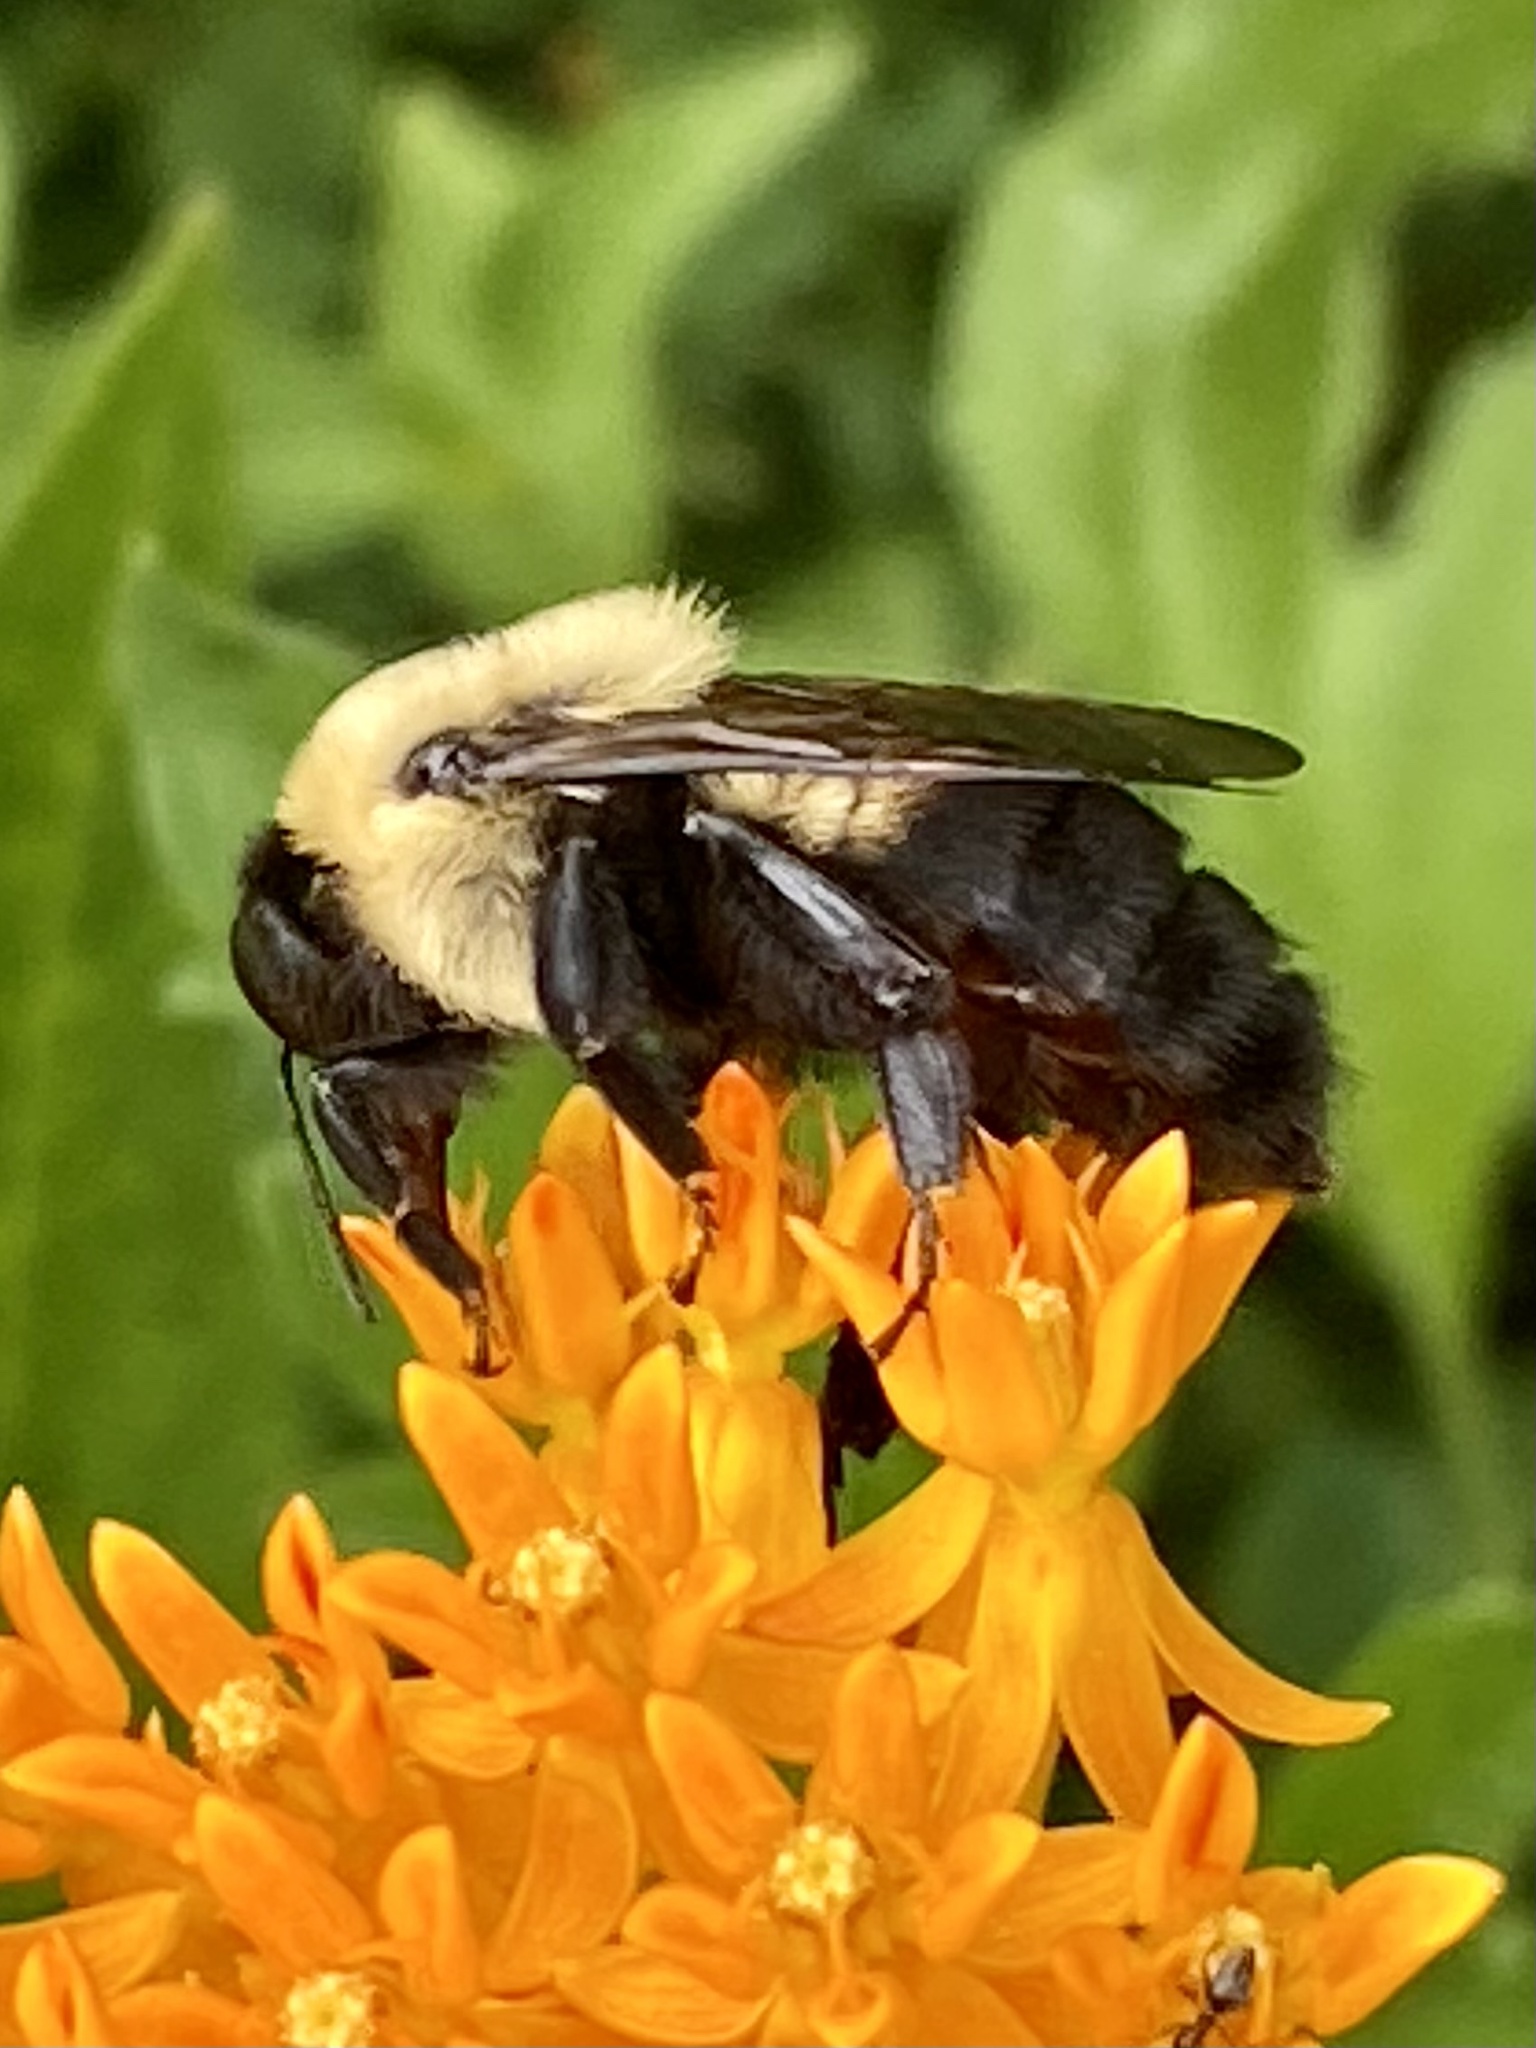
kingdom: Animalia
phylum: Arthropoda
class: Insecta
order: Hymenoptera
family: Apidae
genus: Bombus
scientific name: Bombus griseocollis
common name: Brown-belted bumble bee
